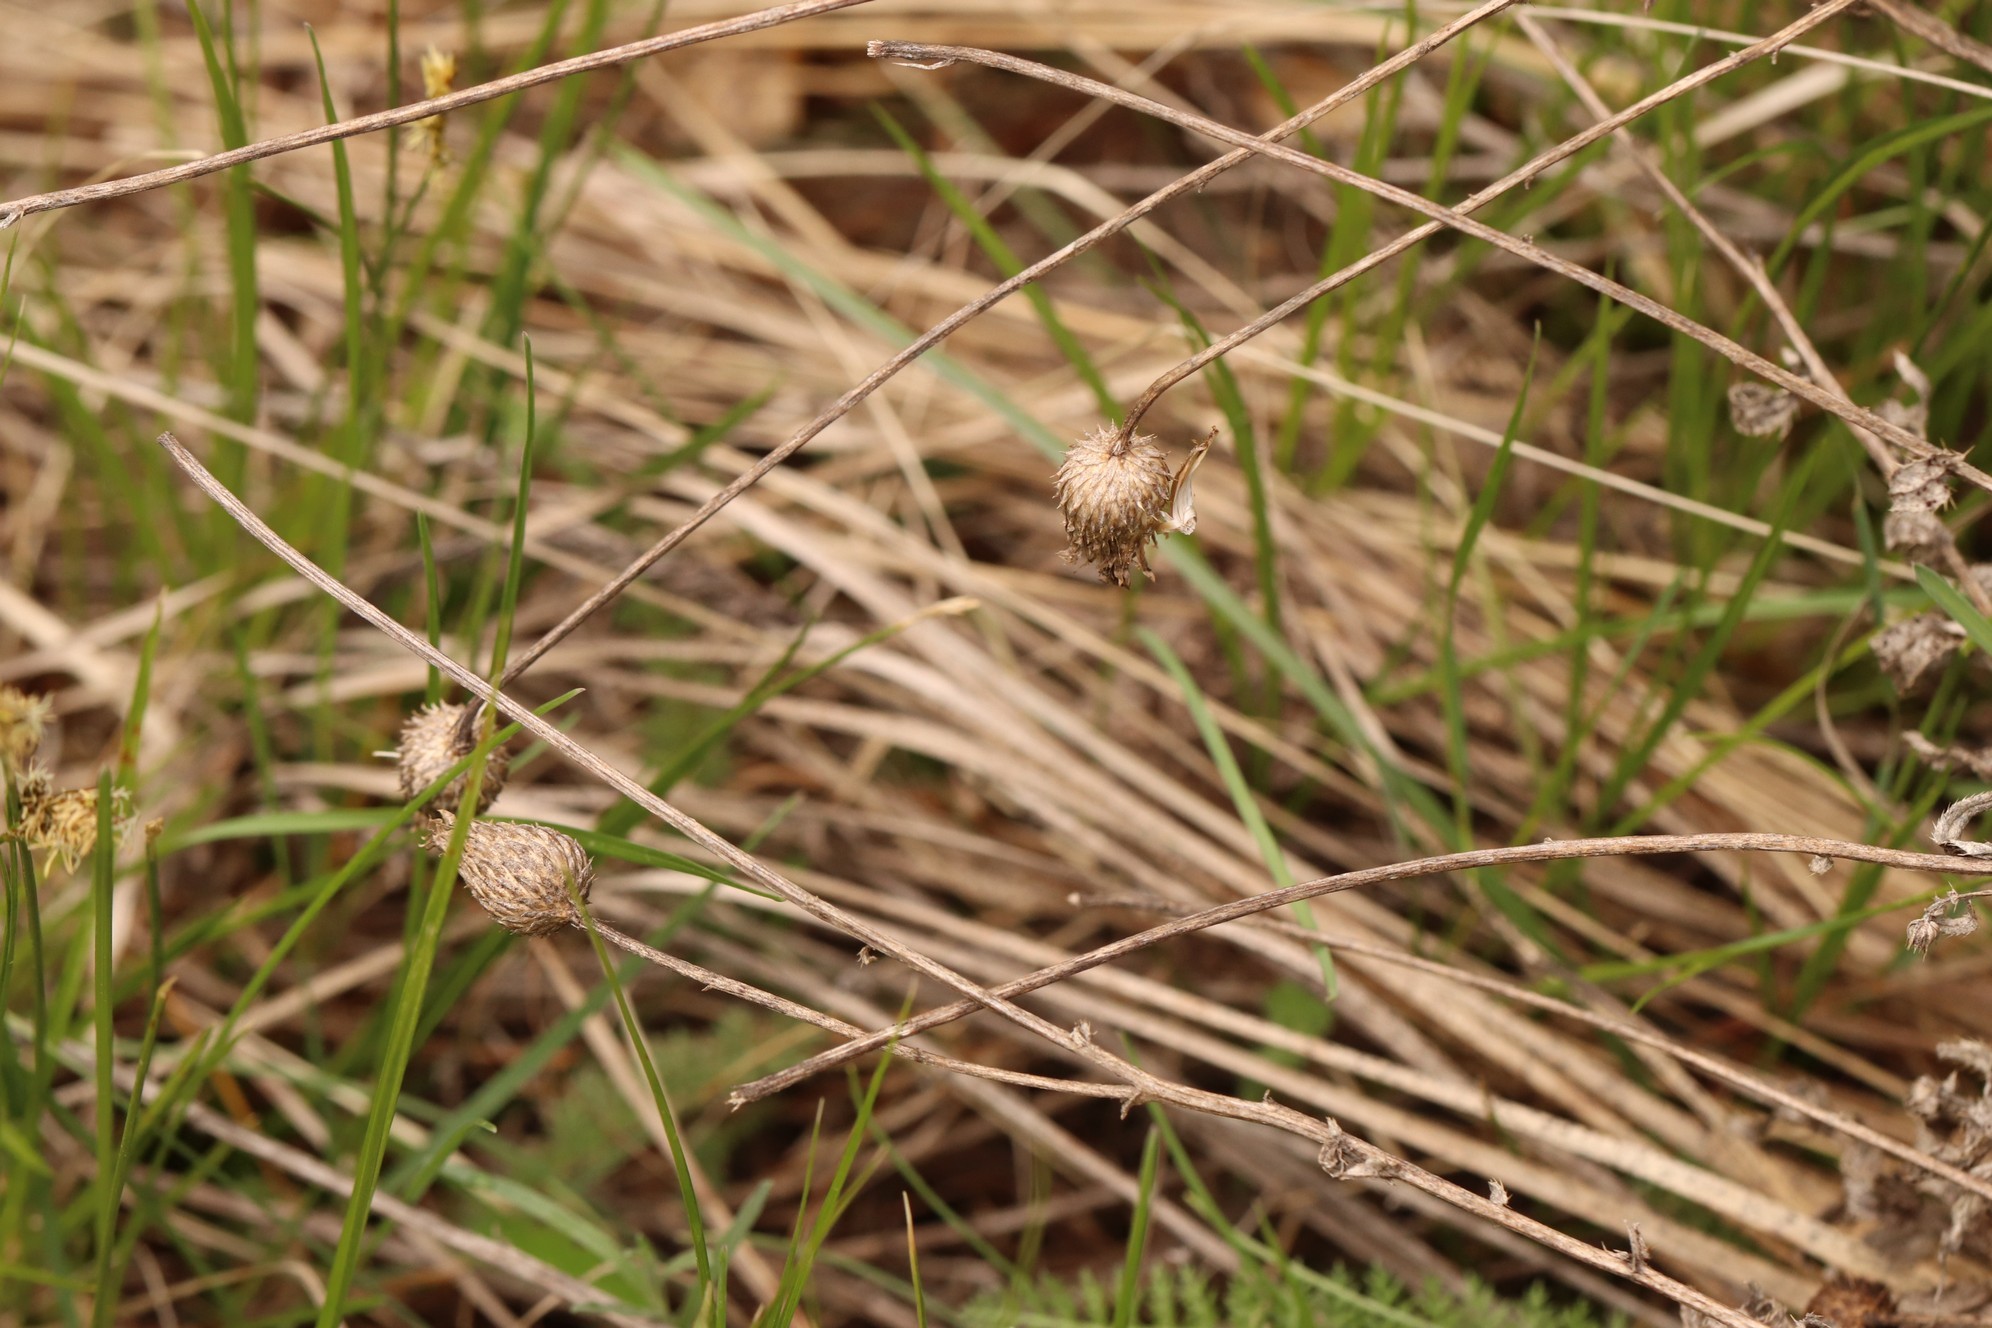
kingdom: Plantae
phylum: Tracheophyta
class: Magnoliopsida
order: Asterales
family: Asteraceae
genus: Cirsium
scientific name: Cirsium arvense
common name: Creeping thistle
